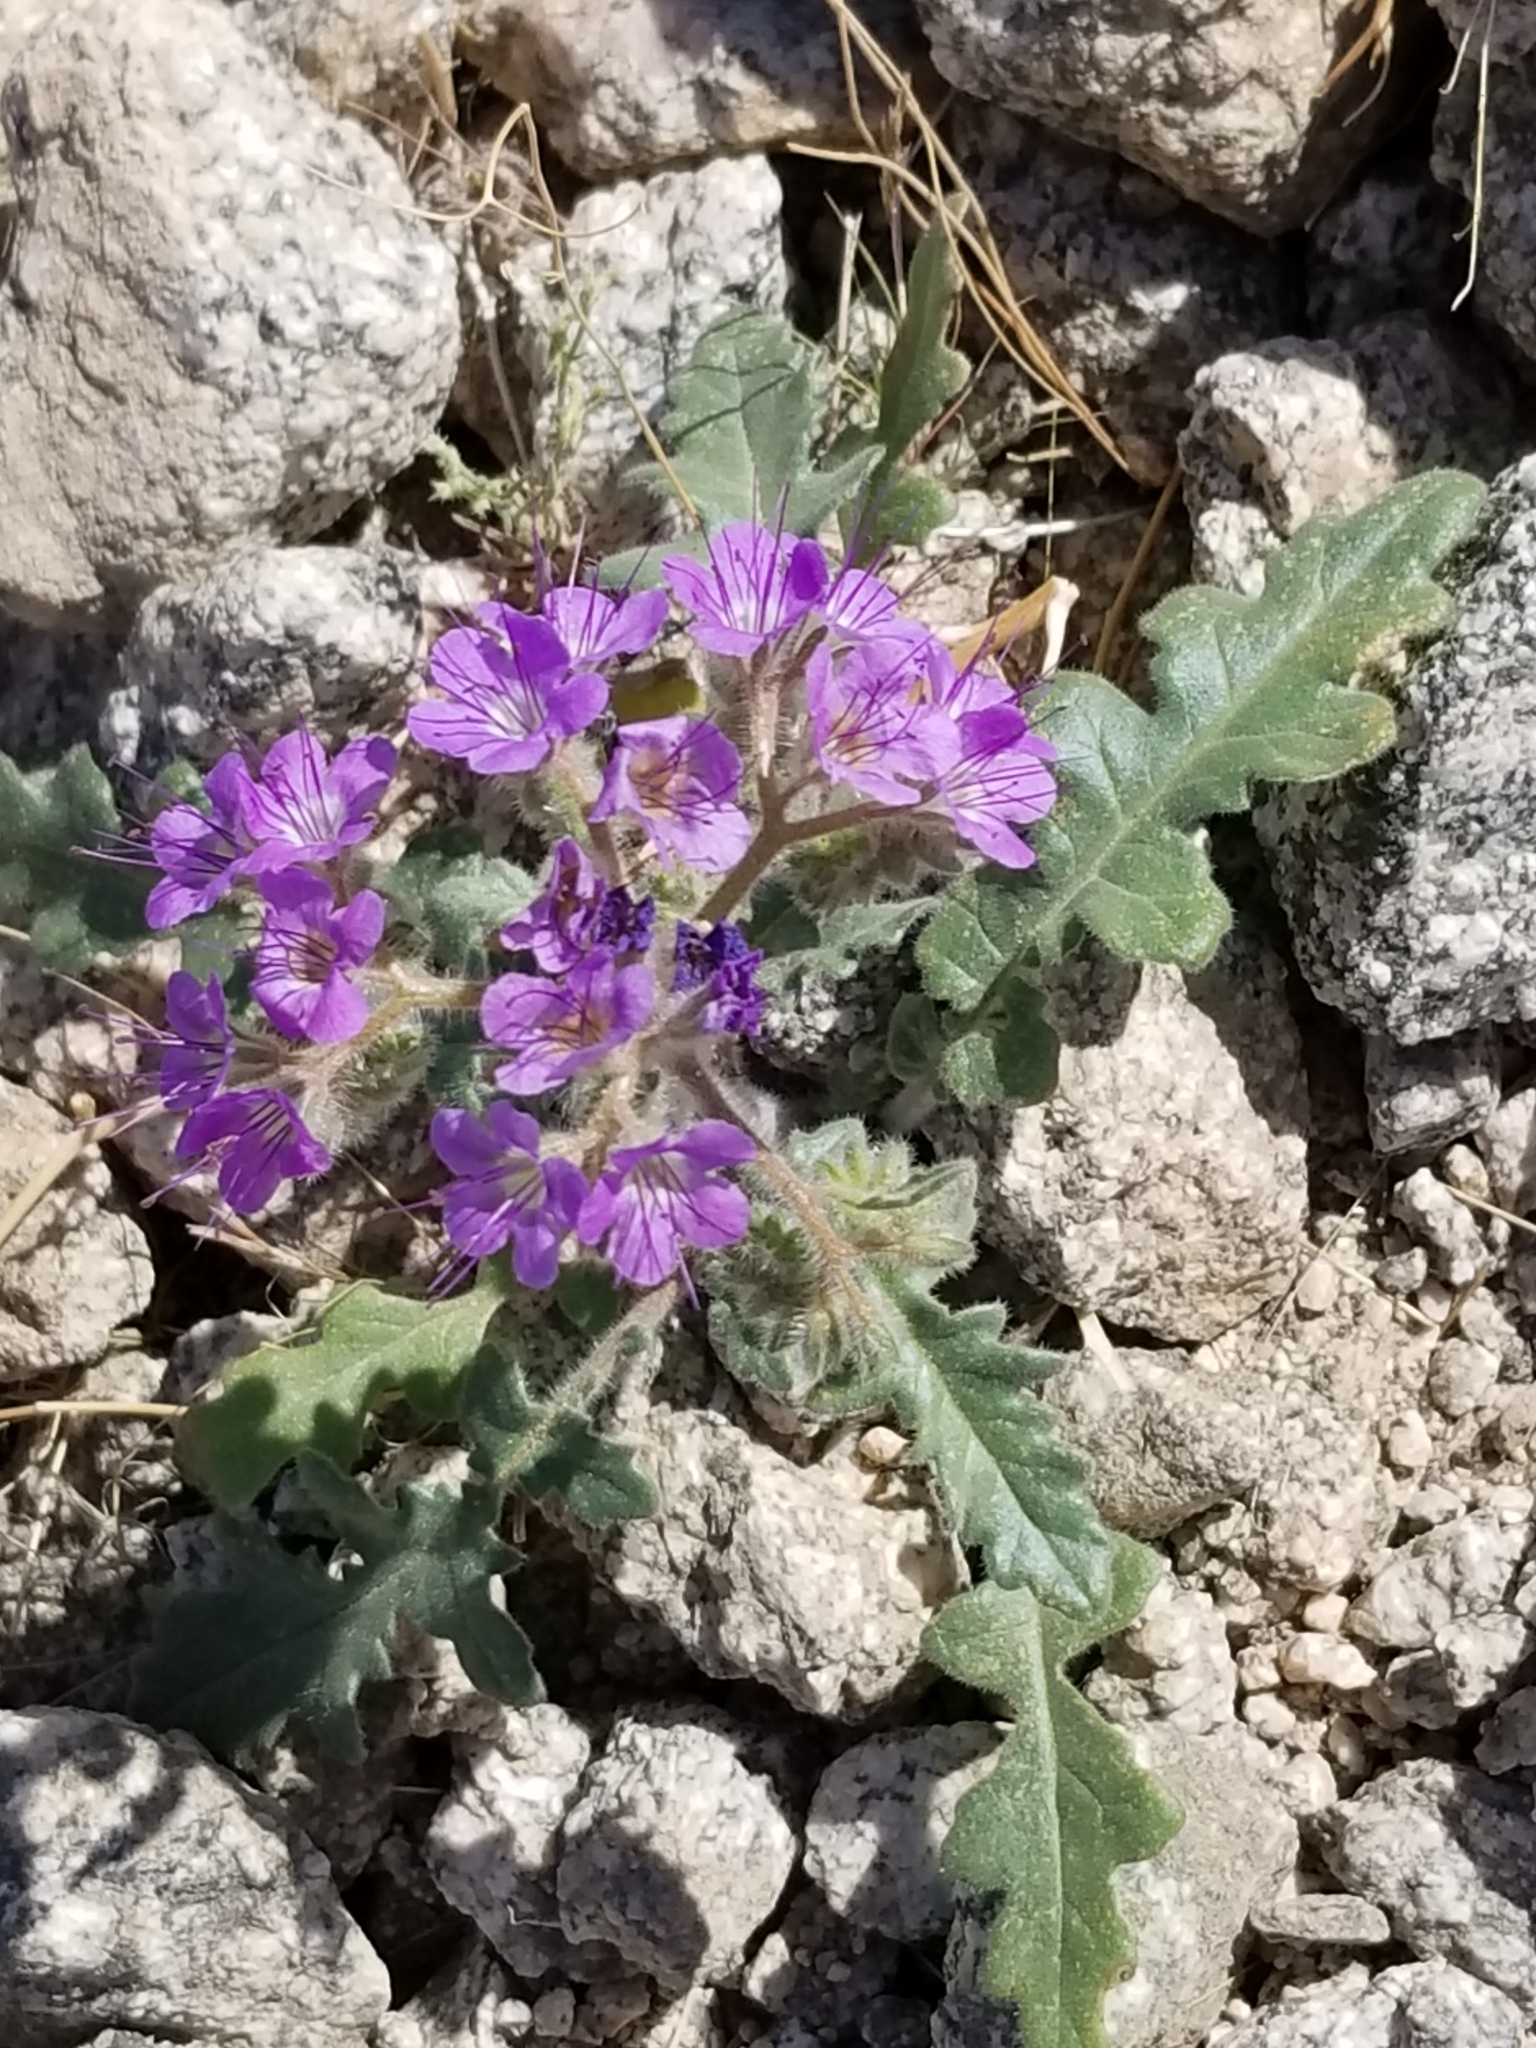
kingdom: Plantae
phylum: Tracheophyta
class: Magnoliopsida
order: Boraginales
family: Hydrophyllaceae
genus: Phacelia
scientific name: Phacelia crenulata
